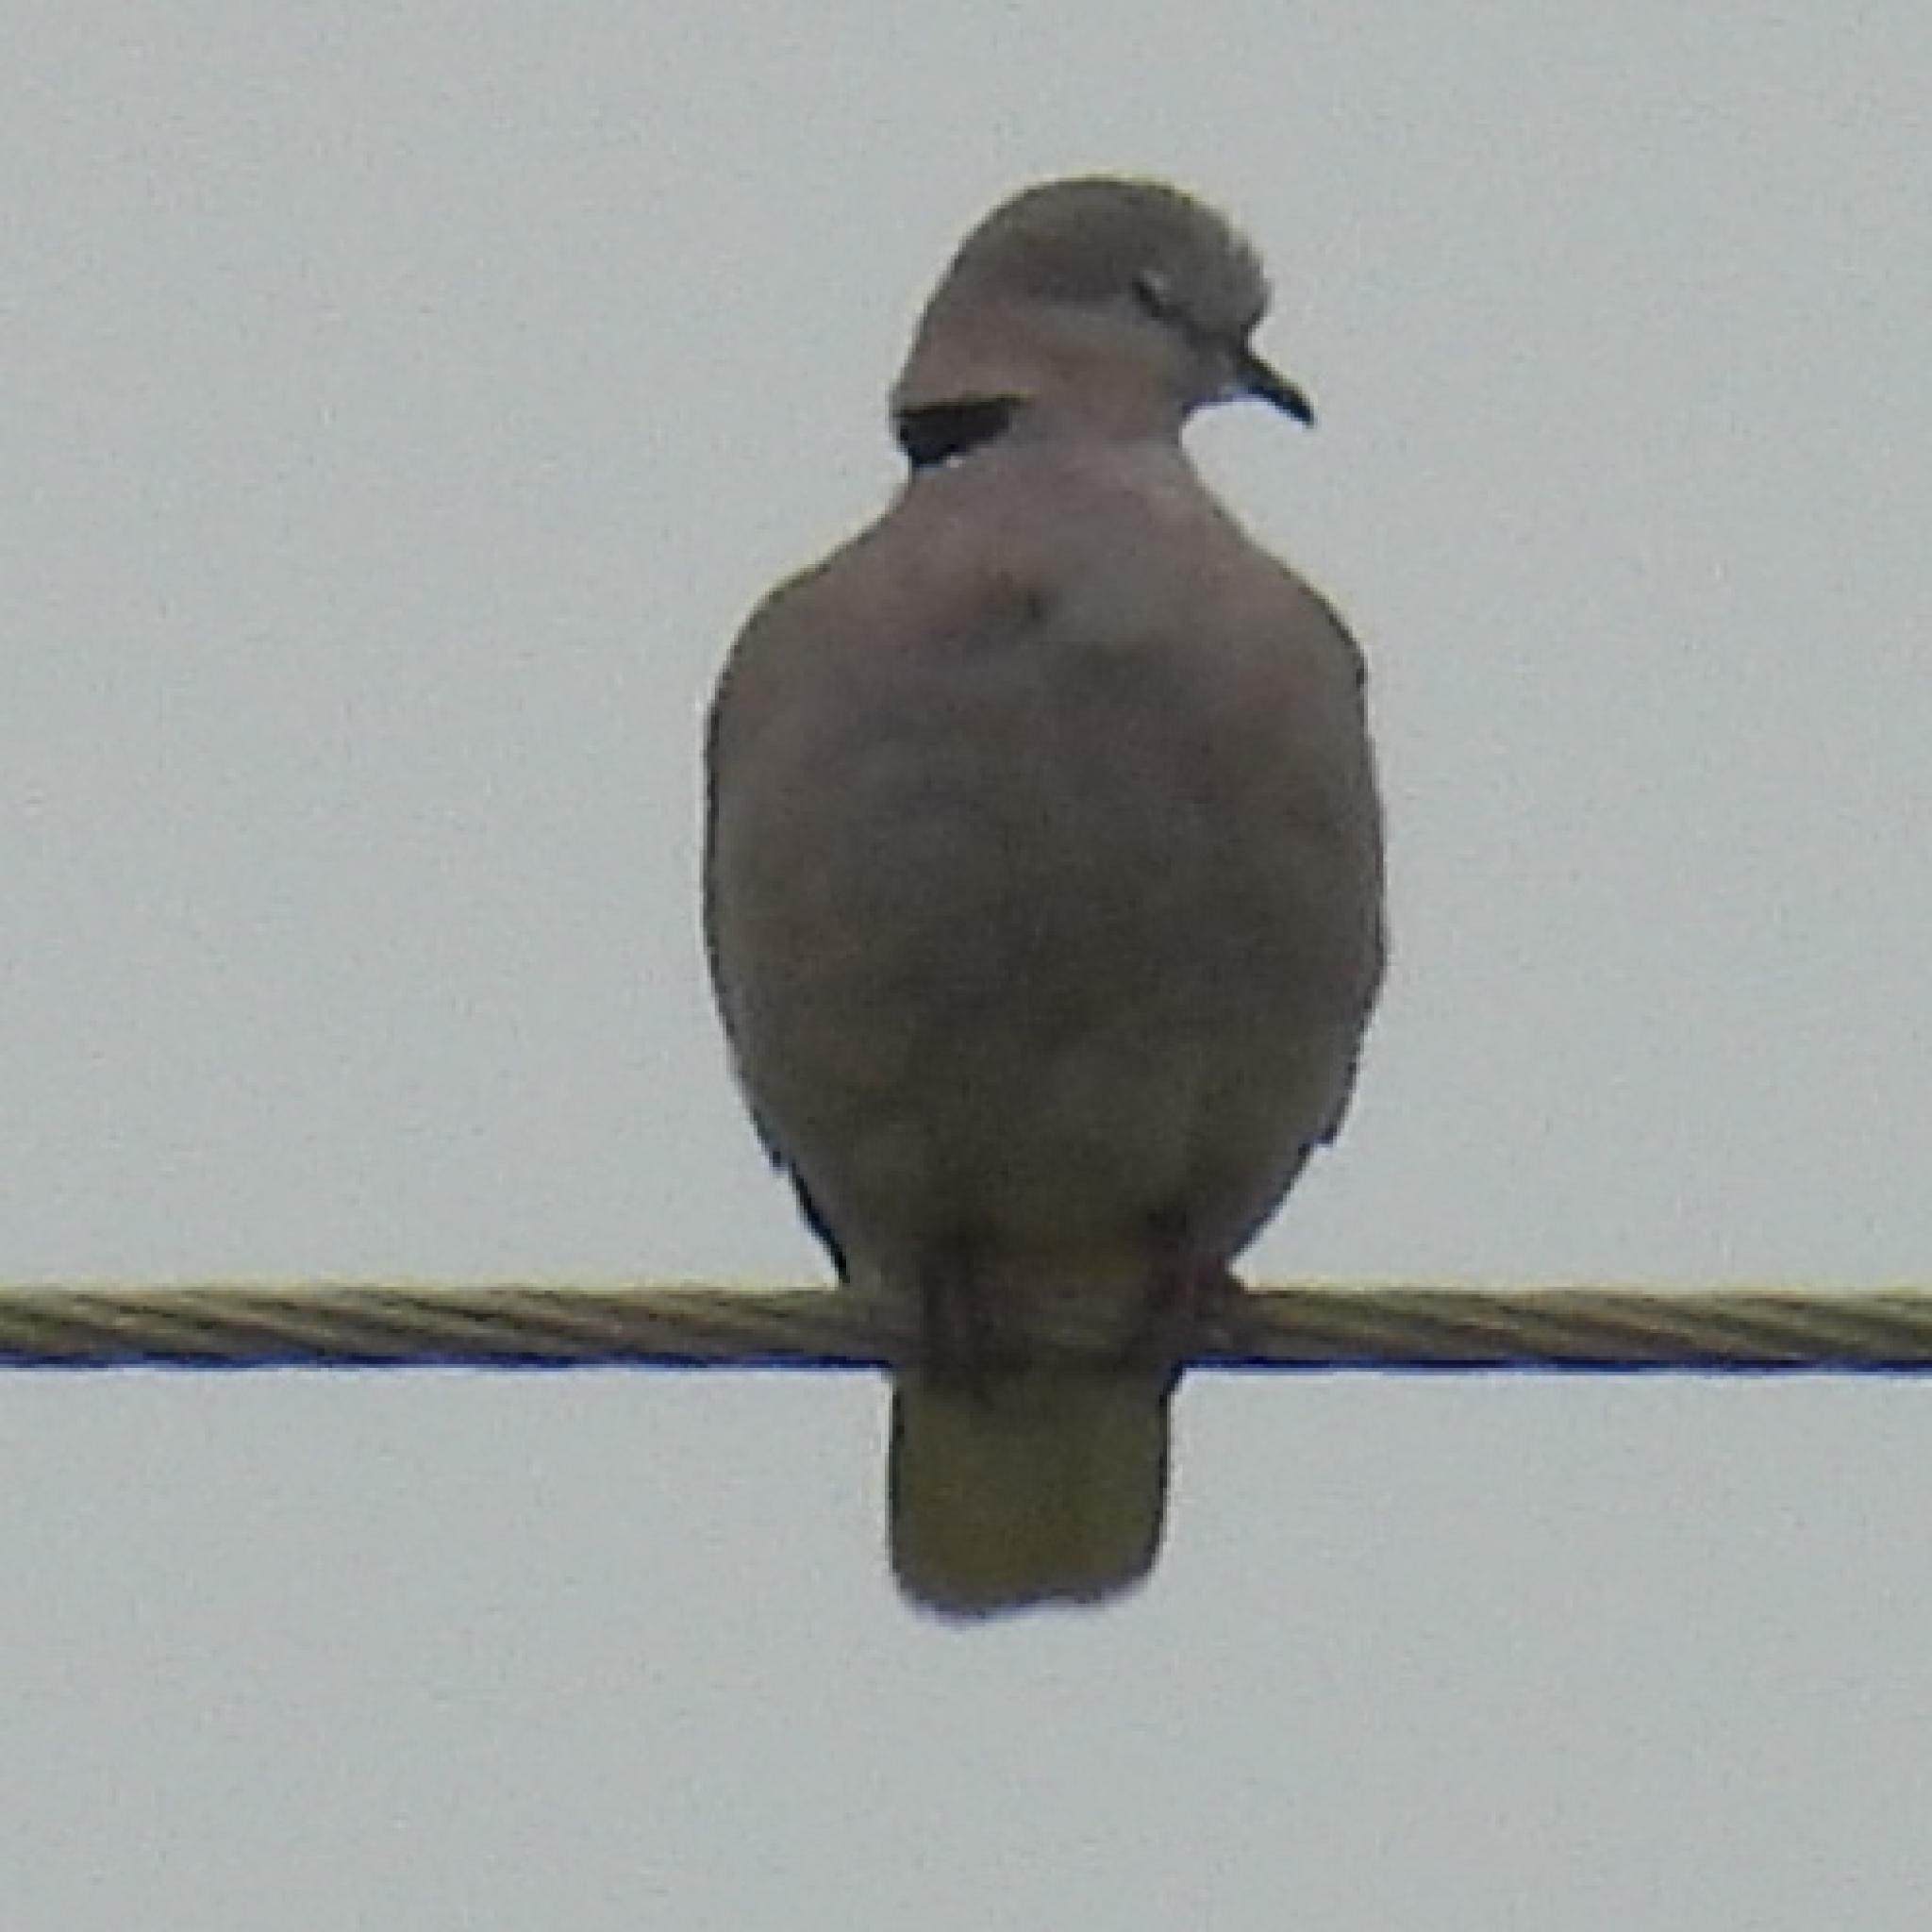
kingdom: Animalia
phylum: Chordata
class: Aves
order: Columbiformes
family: Columbidae
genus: Streptopelia
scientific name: Streptopelia capicola
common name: Ring-necked dove
